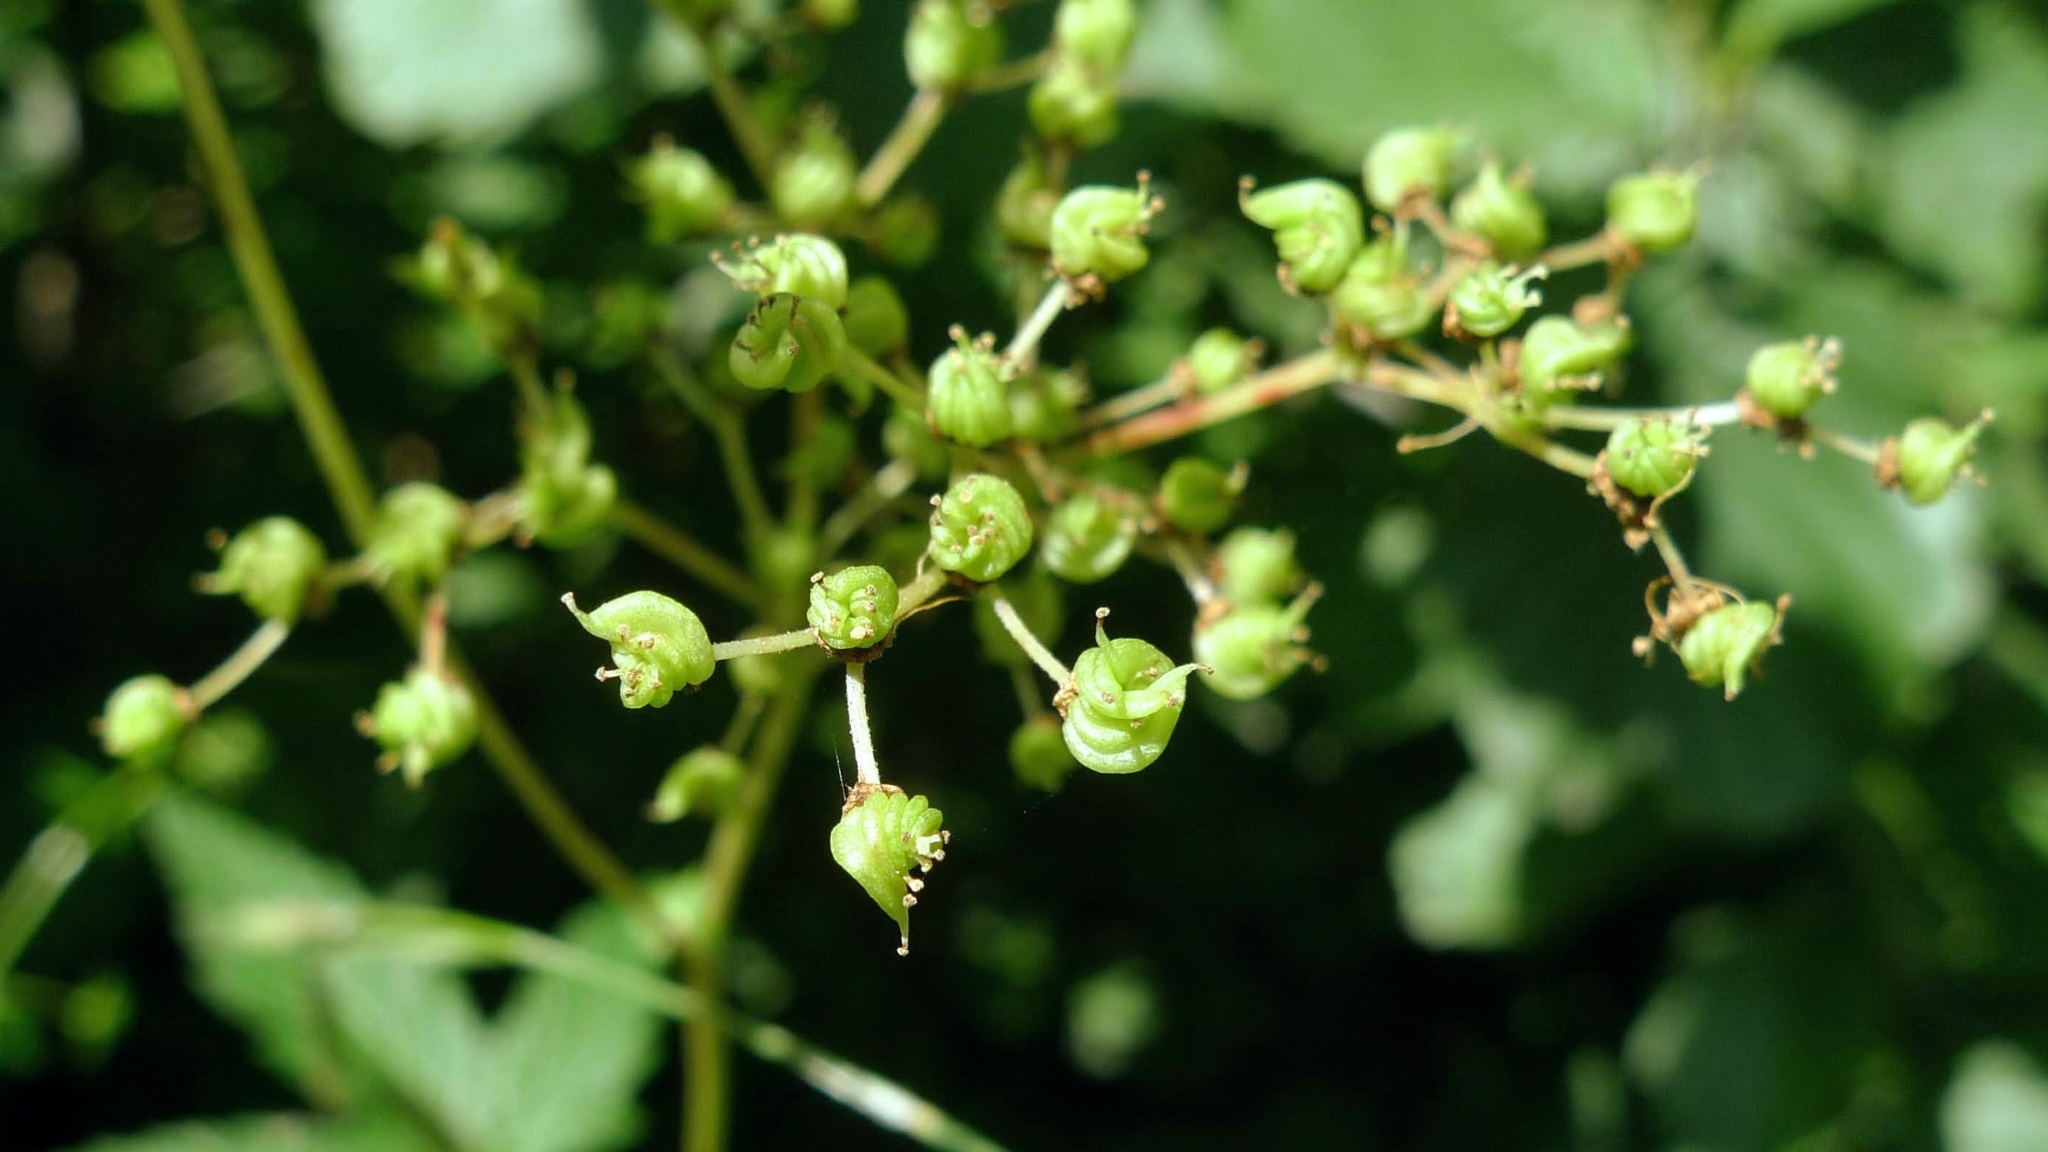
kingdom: Plantae
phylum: Tracheophyta
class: Magnoliopsida
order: Rosales
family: Rosaceae
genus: Filipendula
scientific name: Filipendula ulmaria
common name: Meadowsweet
